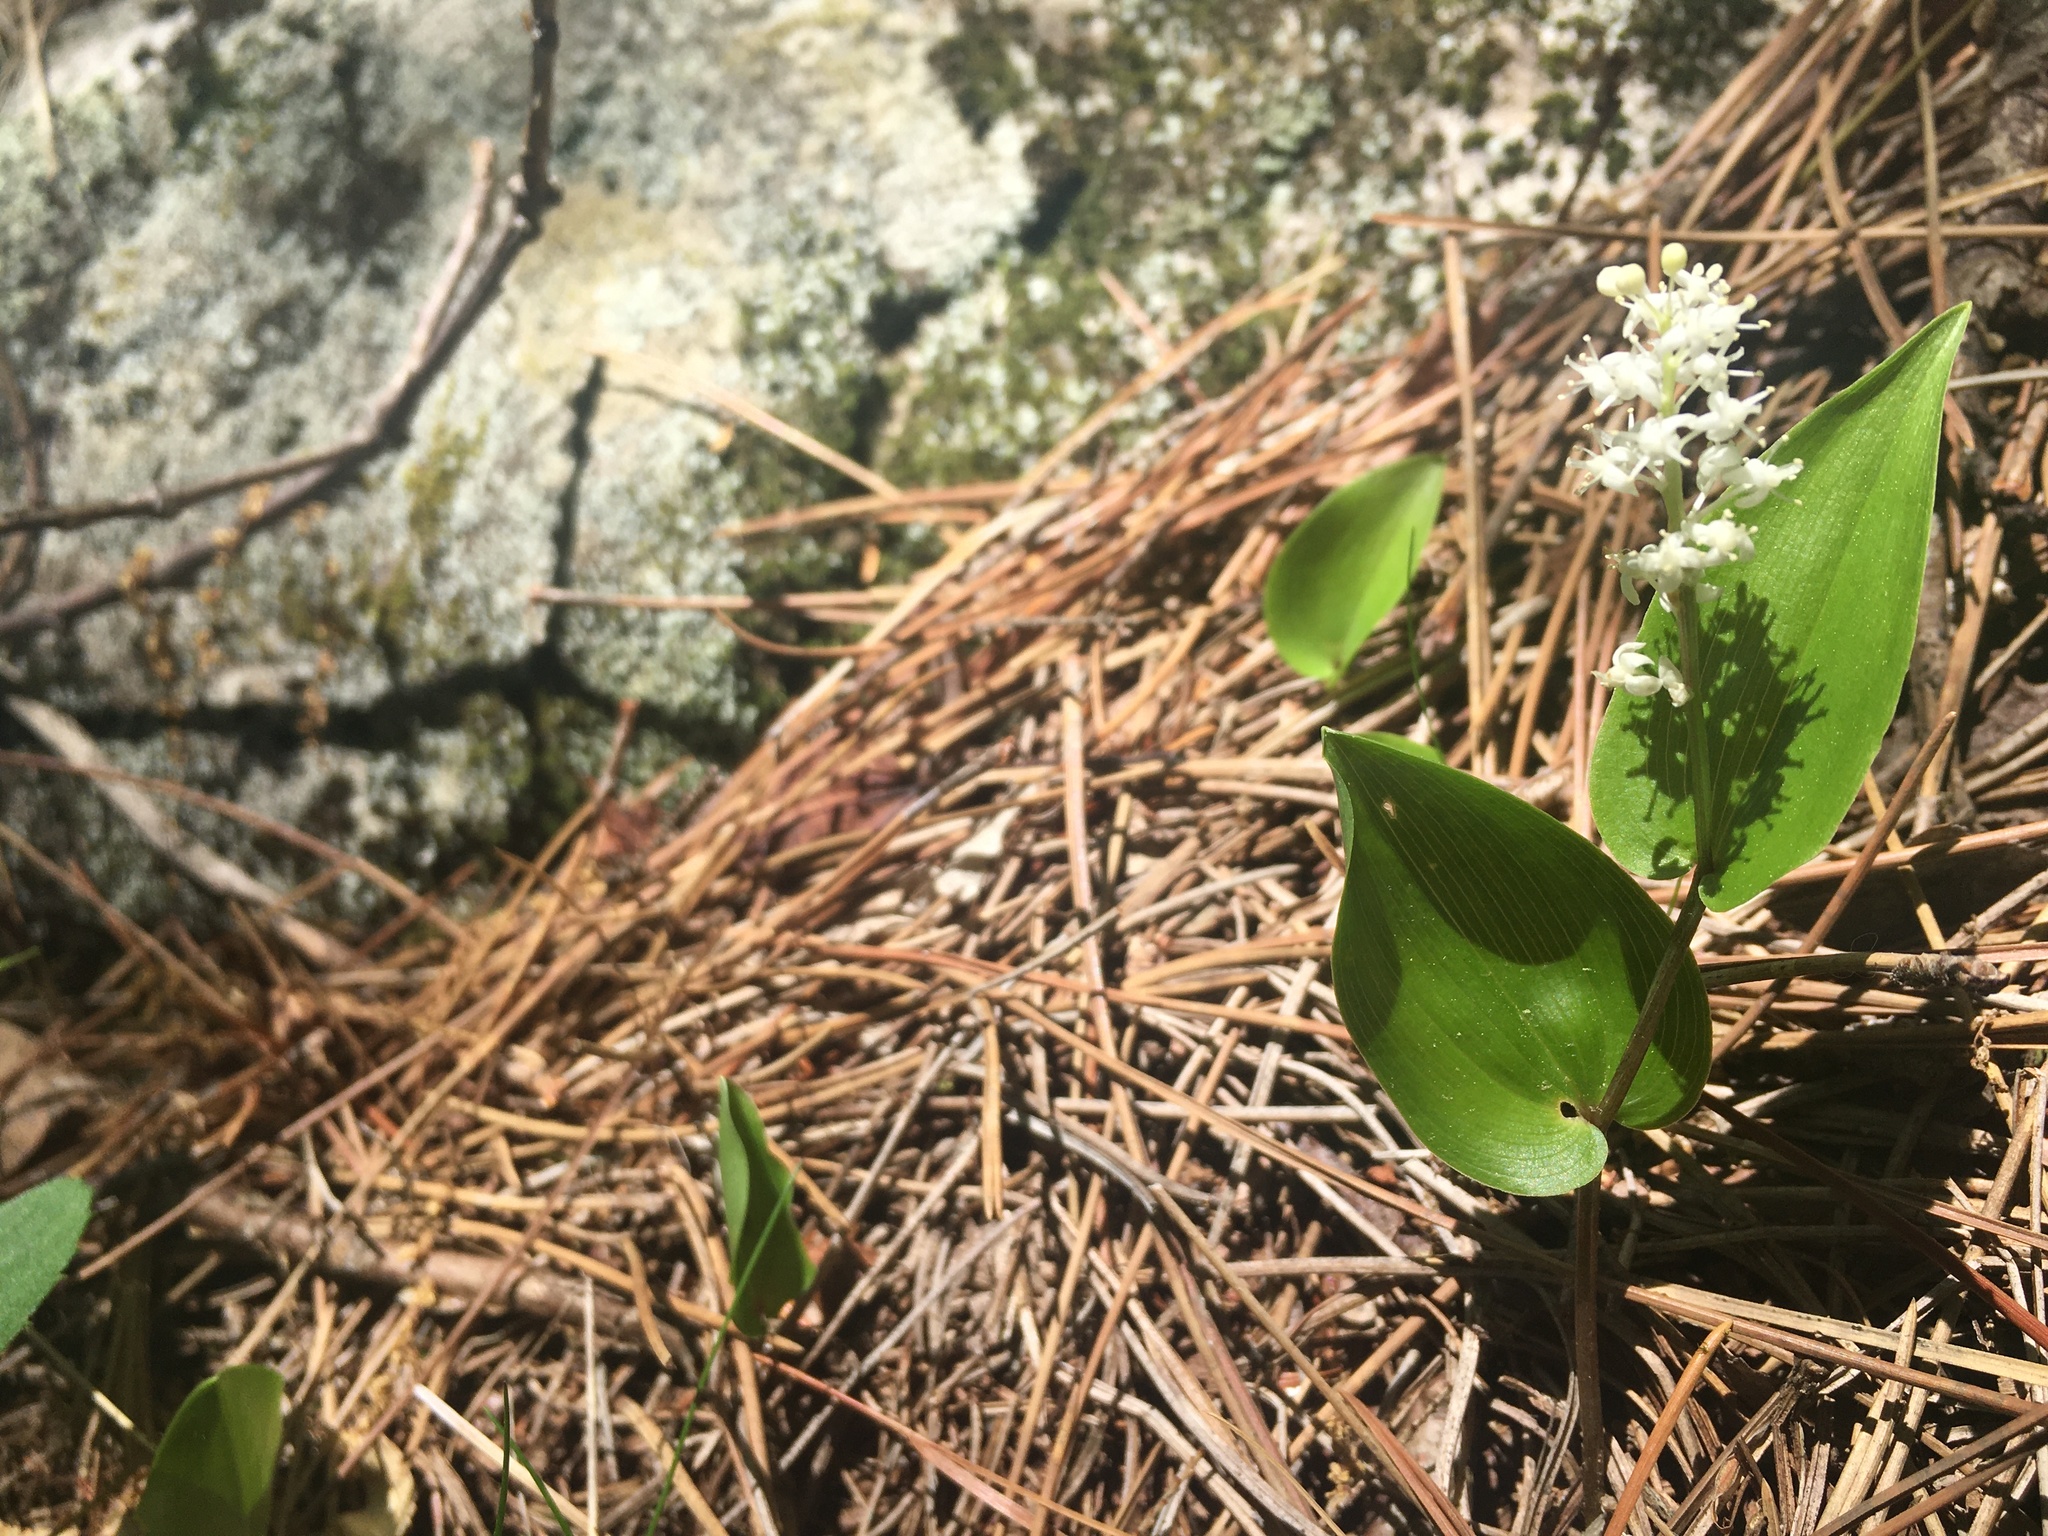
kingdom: Plantae
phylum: Tracheophyta
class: Liliopsida
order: Asparagales
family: Asparagaceae
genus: Maianthemum
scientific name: Maianthemum canadense
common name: False lily-of-the-valley
